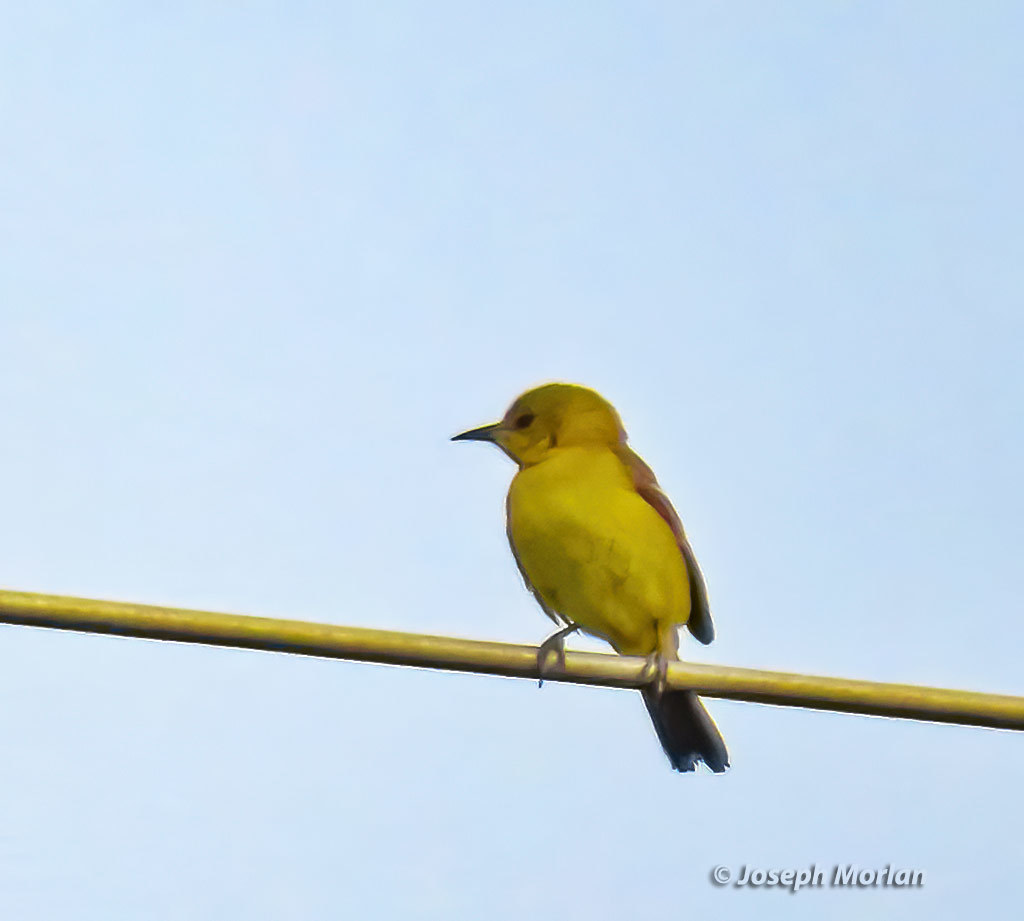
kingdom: Animalia
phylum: Chordata
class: Aves
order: Passeriformes
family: Icteridae
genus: Icterus
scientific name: Icterus cucullatus
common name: Hooded oriole
